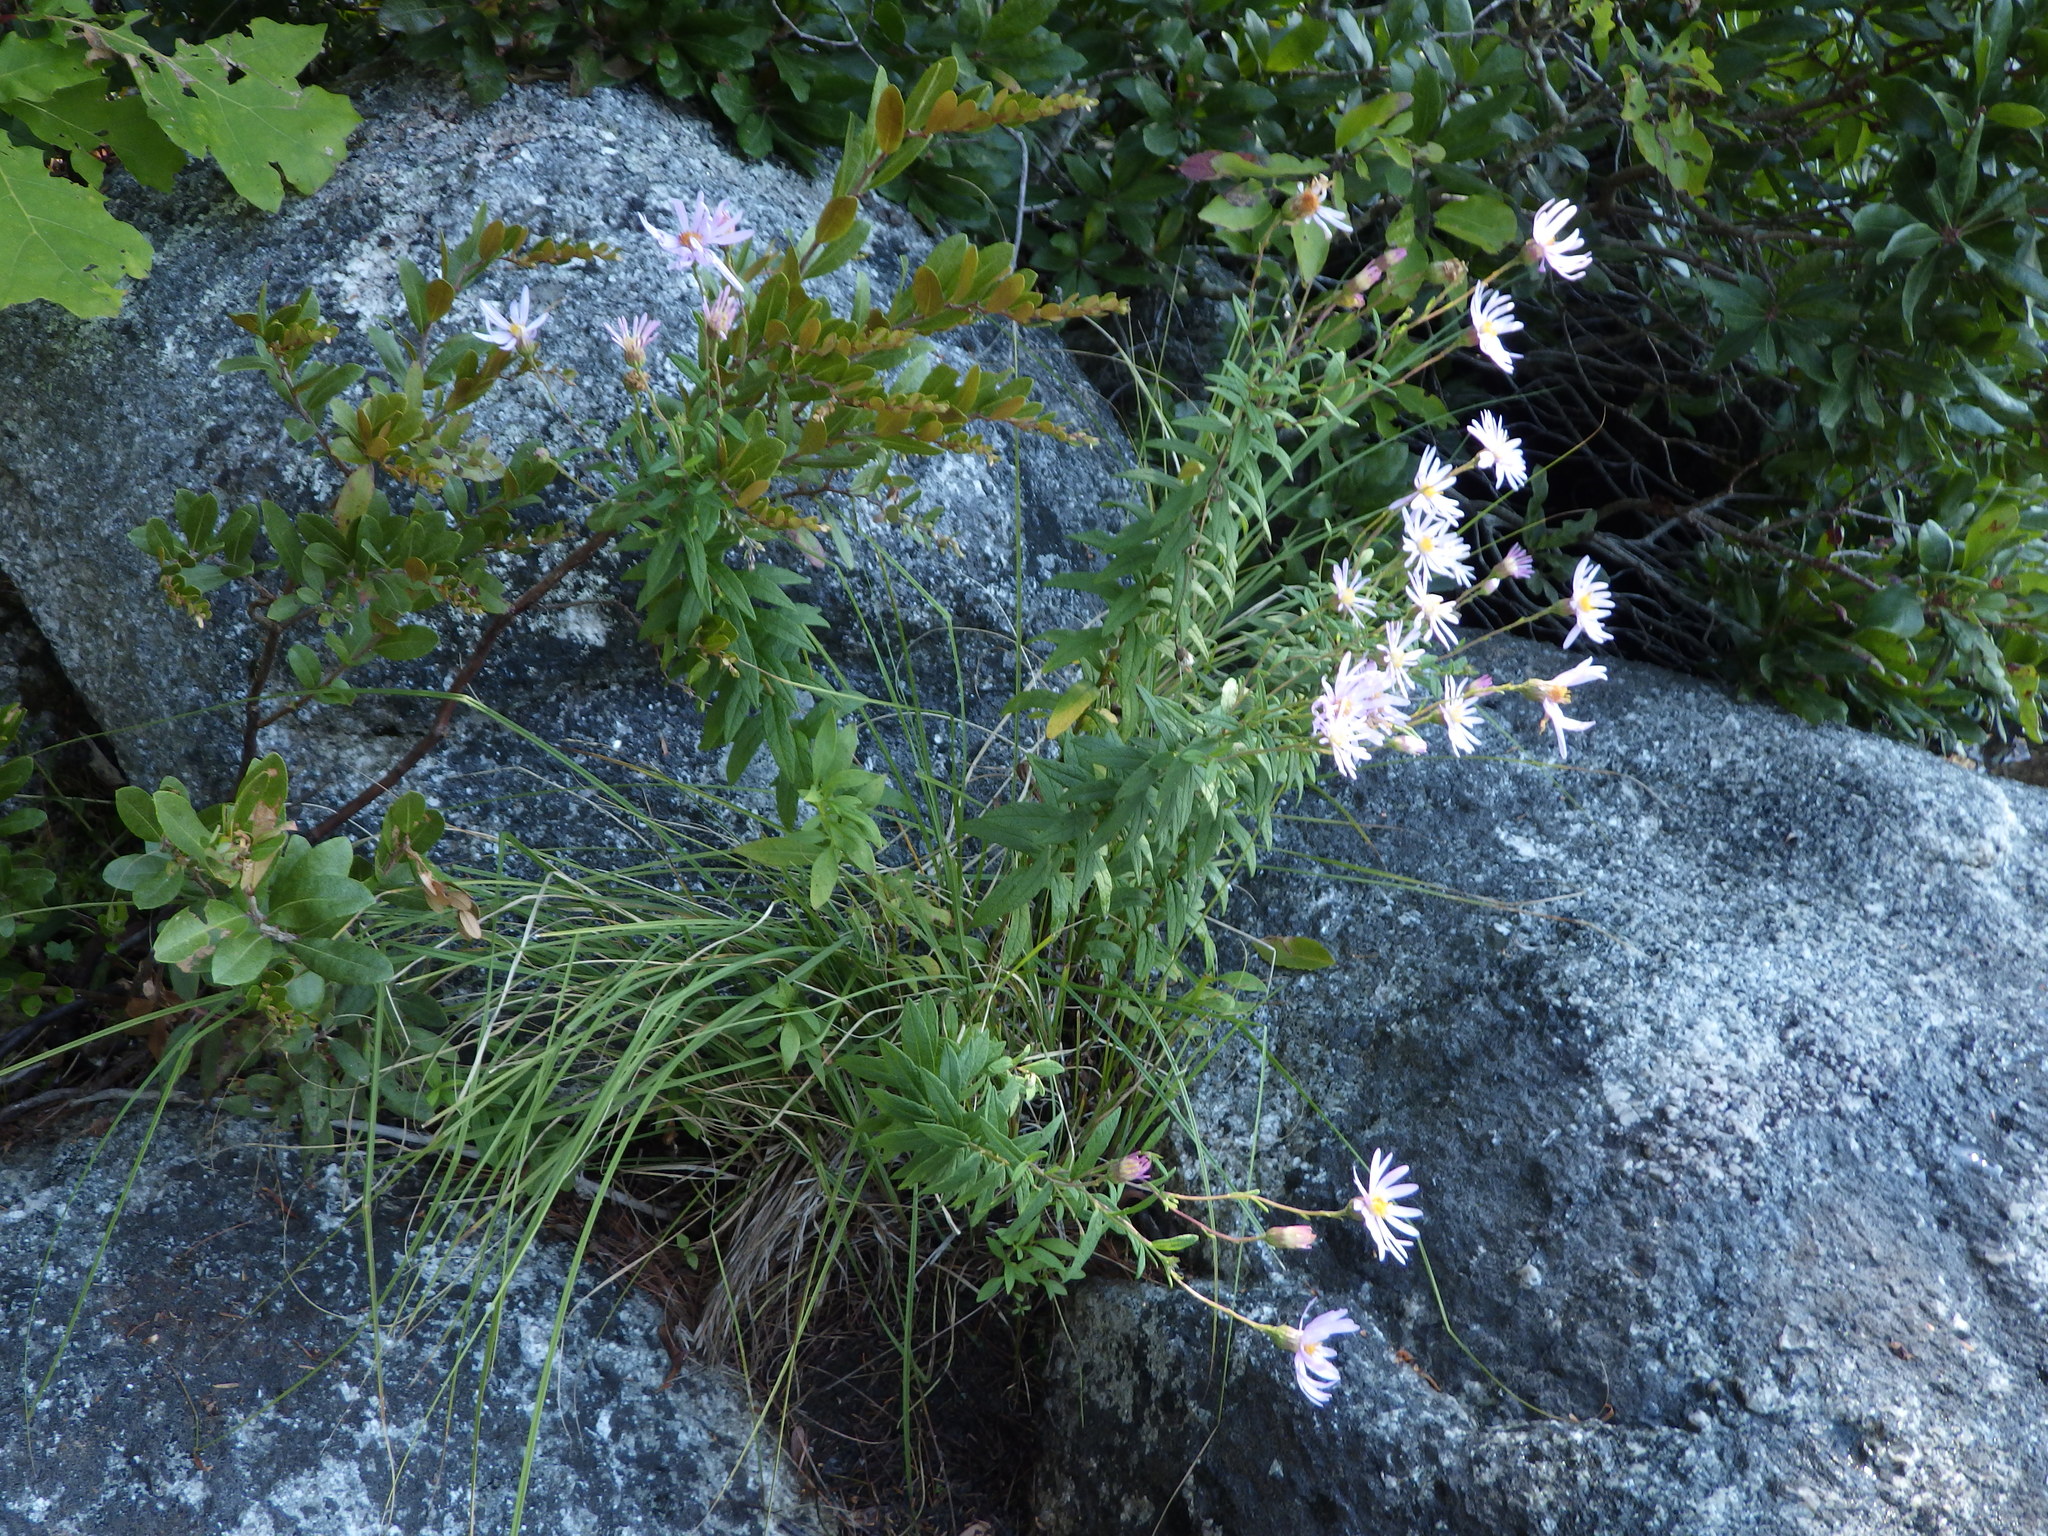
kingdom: Plantae
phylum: Tracheophyta
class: Magnoliopsida
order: Asterales
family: Asteraceae
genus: Oclemena
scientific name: Oclemena nemoralis
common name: Bog aster
